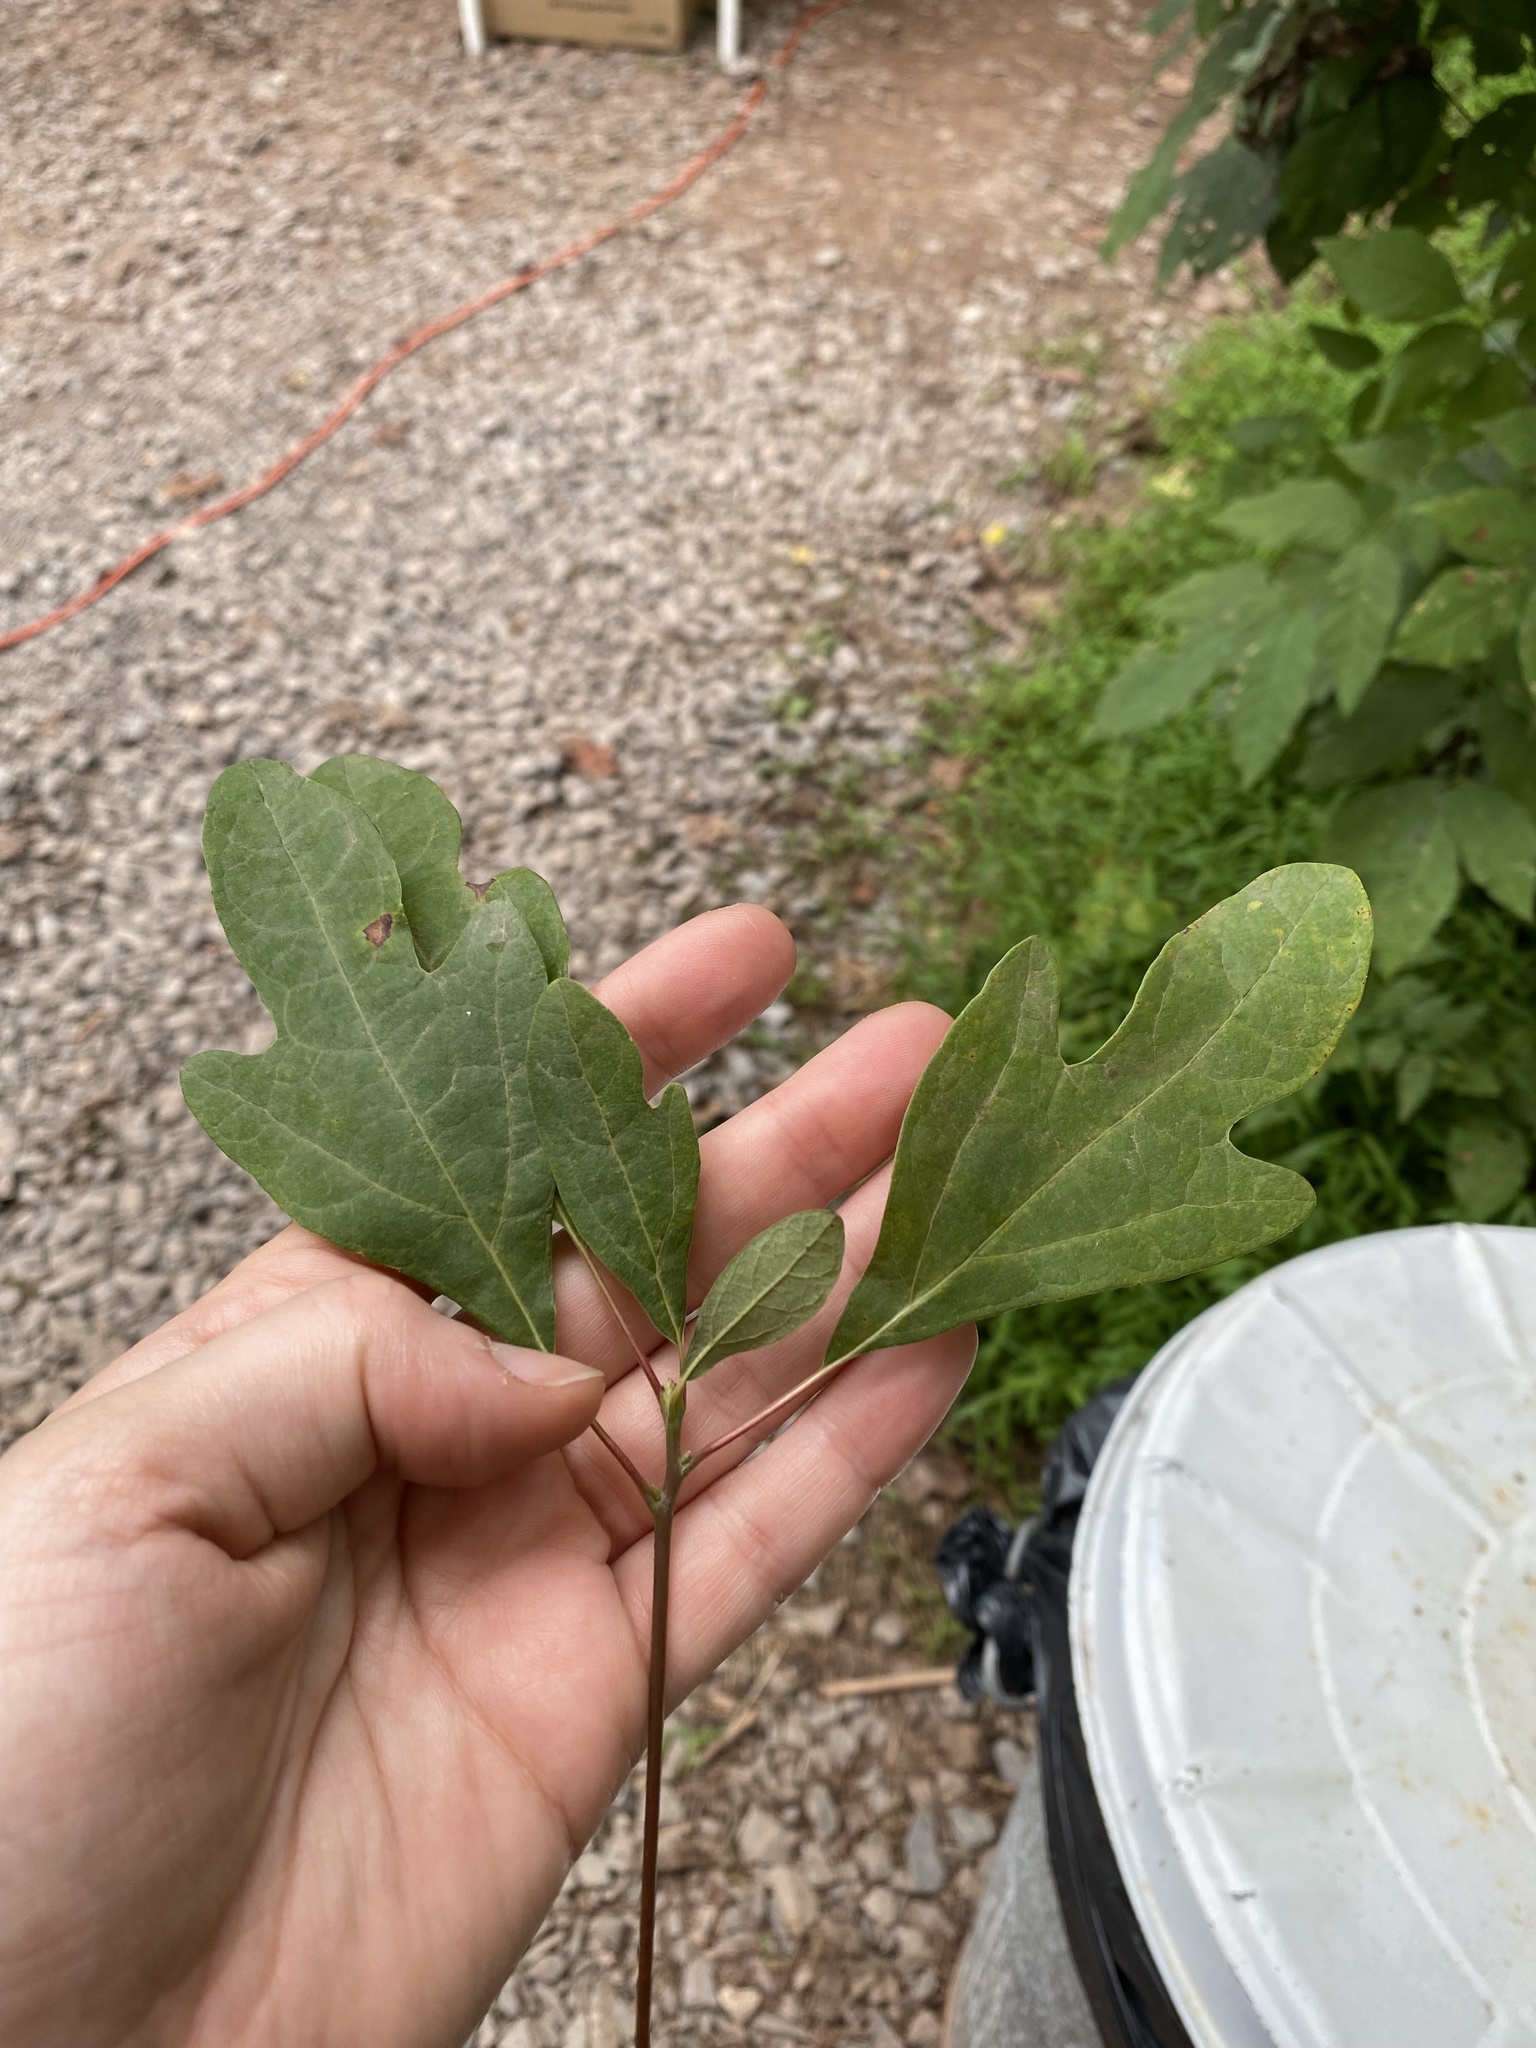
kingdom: Plantae
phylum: Tracheophyta
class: Magnoliopsida
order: Laurales
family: Lauraceae
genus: Sassafras
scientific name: Sassafras albidum
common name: Sassafras
